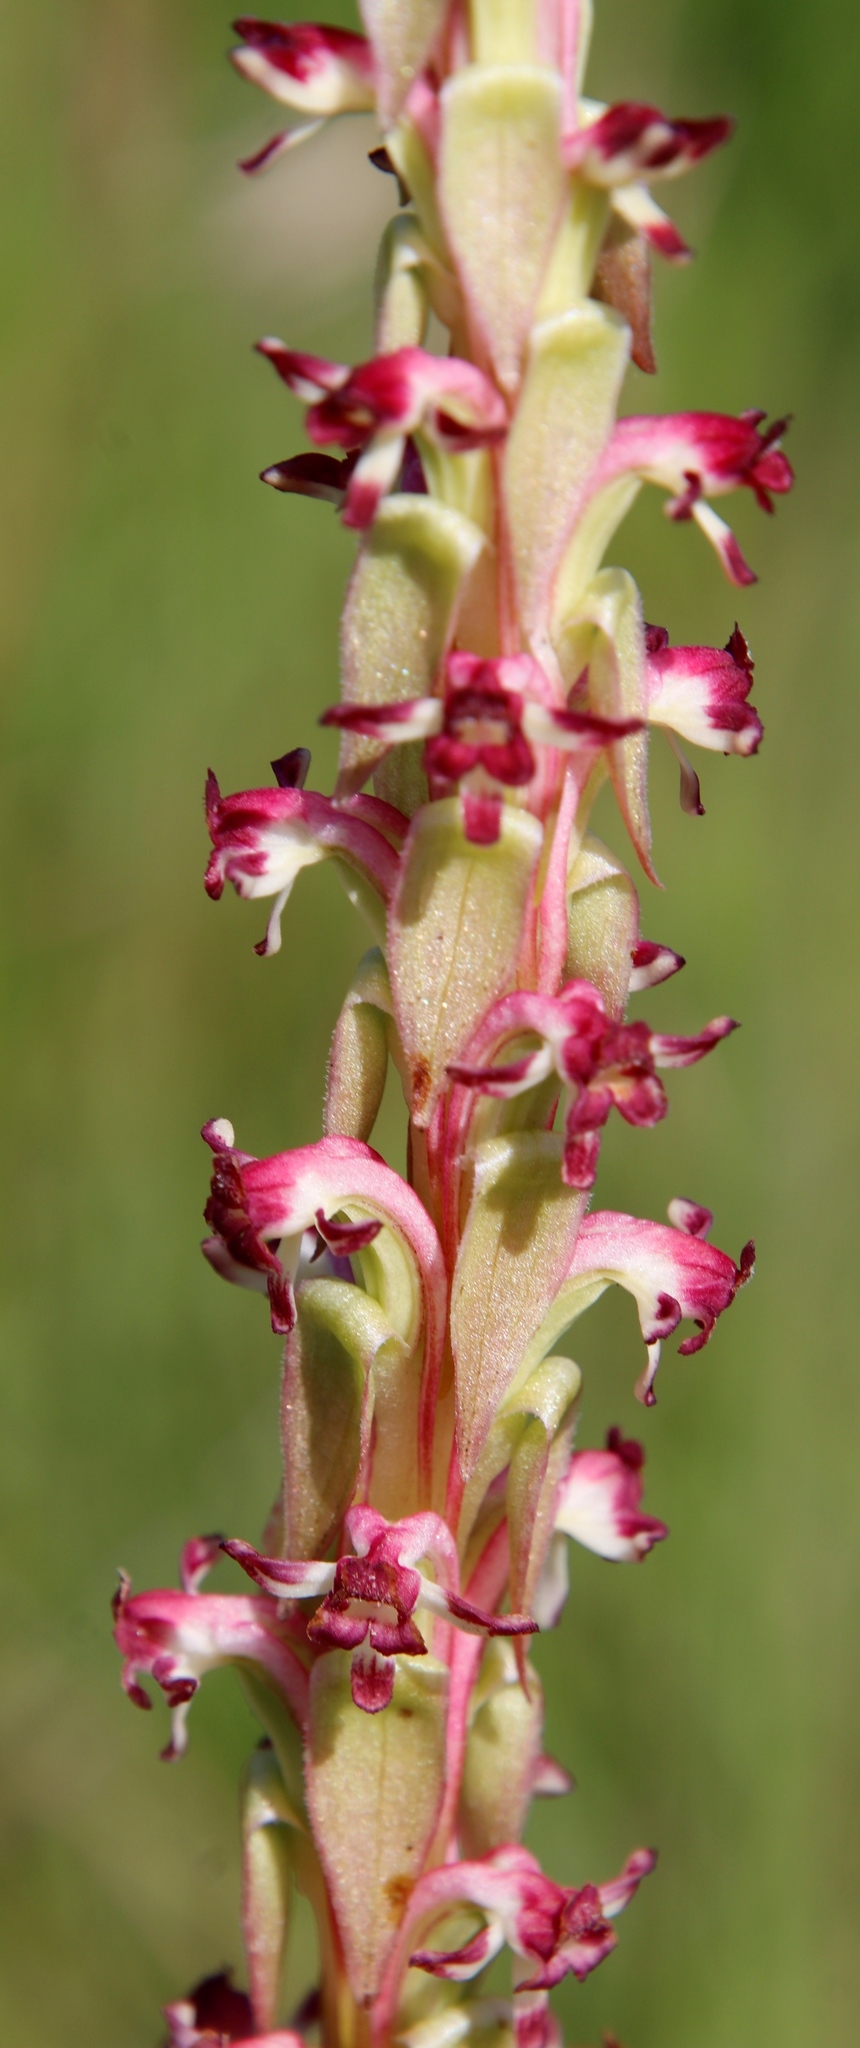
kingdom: Plantae
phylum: Tracheophyta
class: Liliopsida
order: Asparagales
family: Orchidaceae
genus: Satyrium
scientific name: Satyrium longicauda
